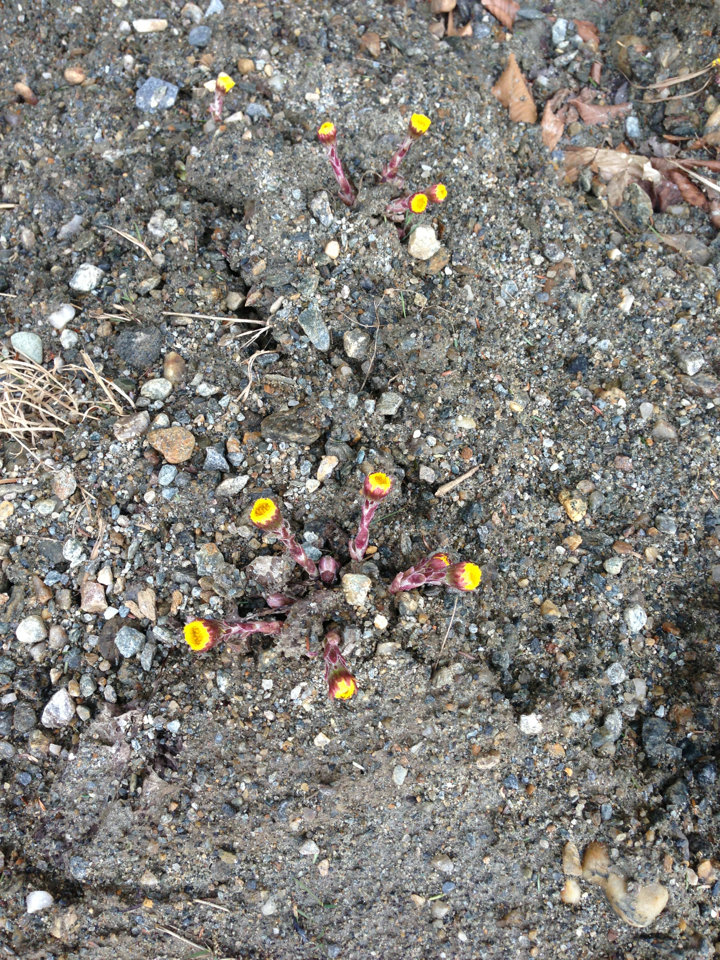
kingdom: Plantae
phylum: Tracheophyta
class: Magnoliopsida
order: Asterales
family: Asteraceae
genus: Tussilago
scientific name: Tussilago farfara
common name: Coltsfoot
